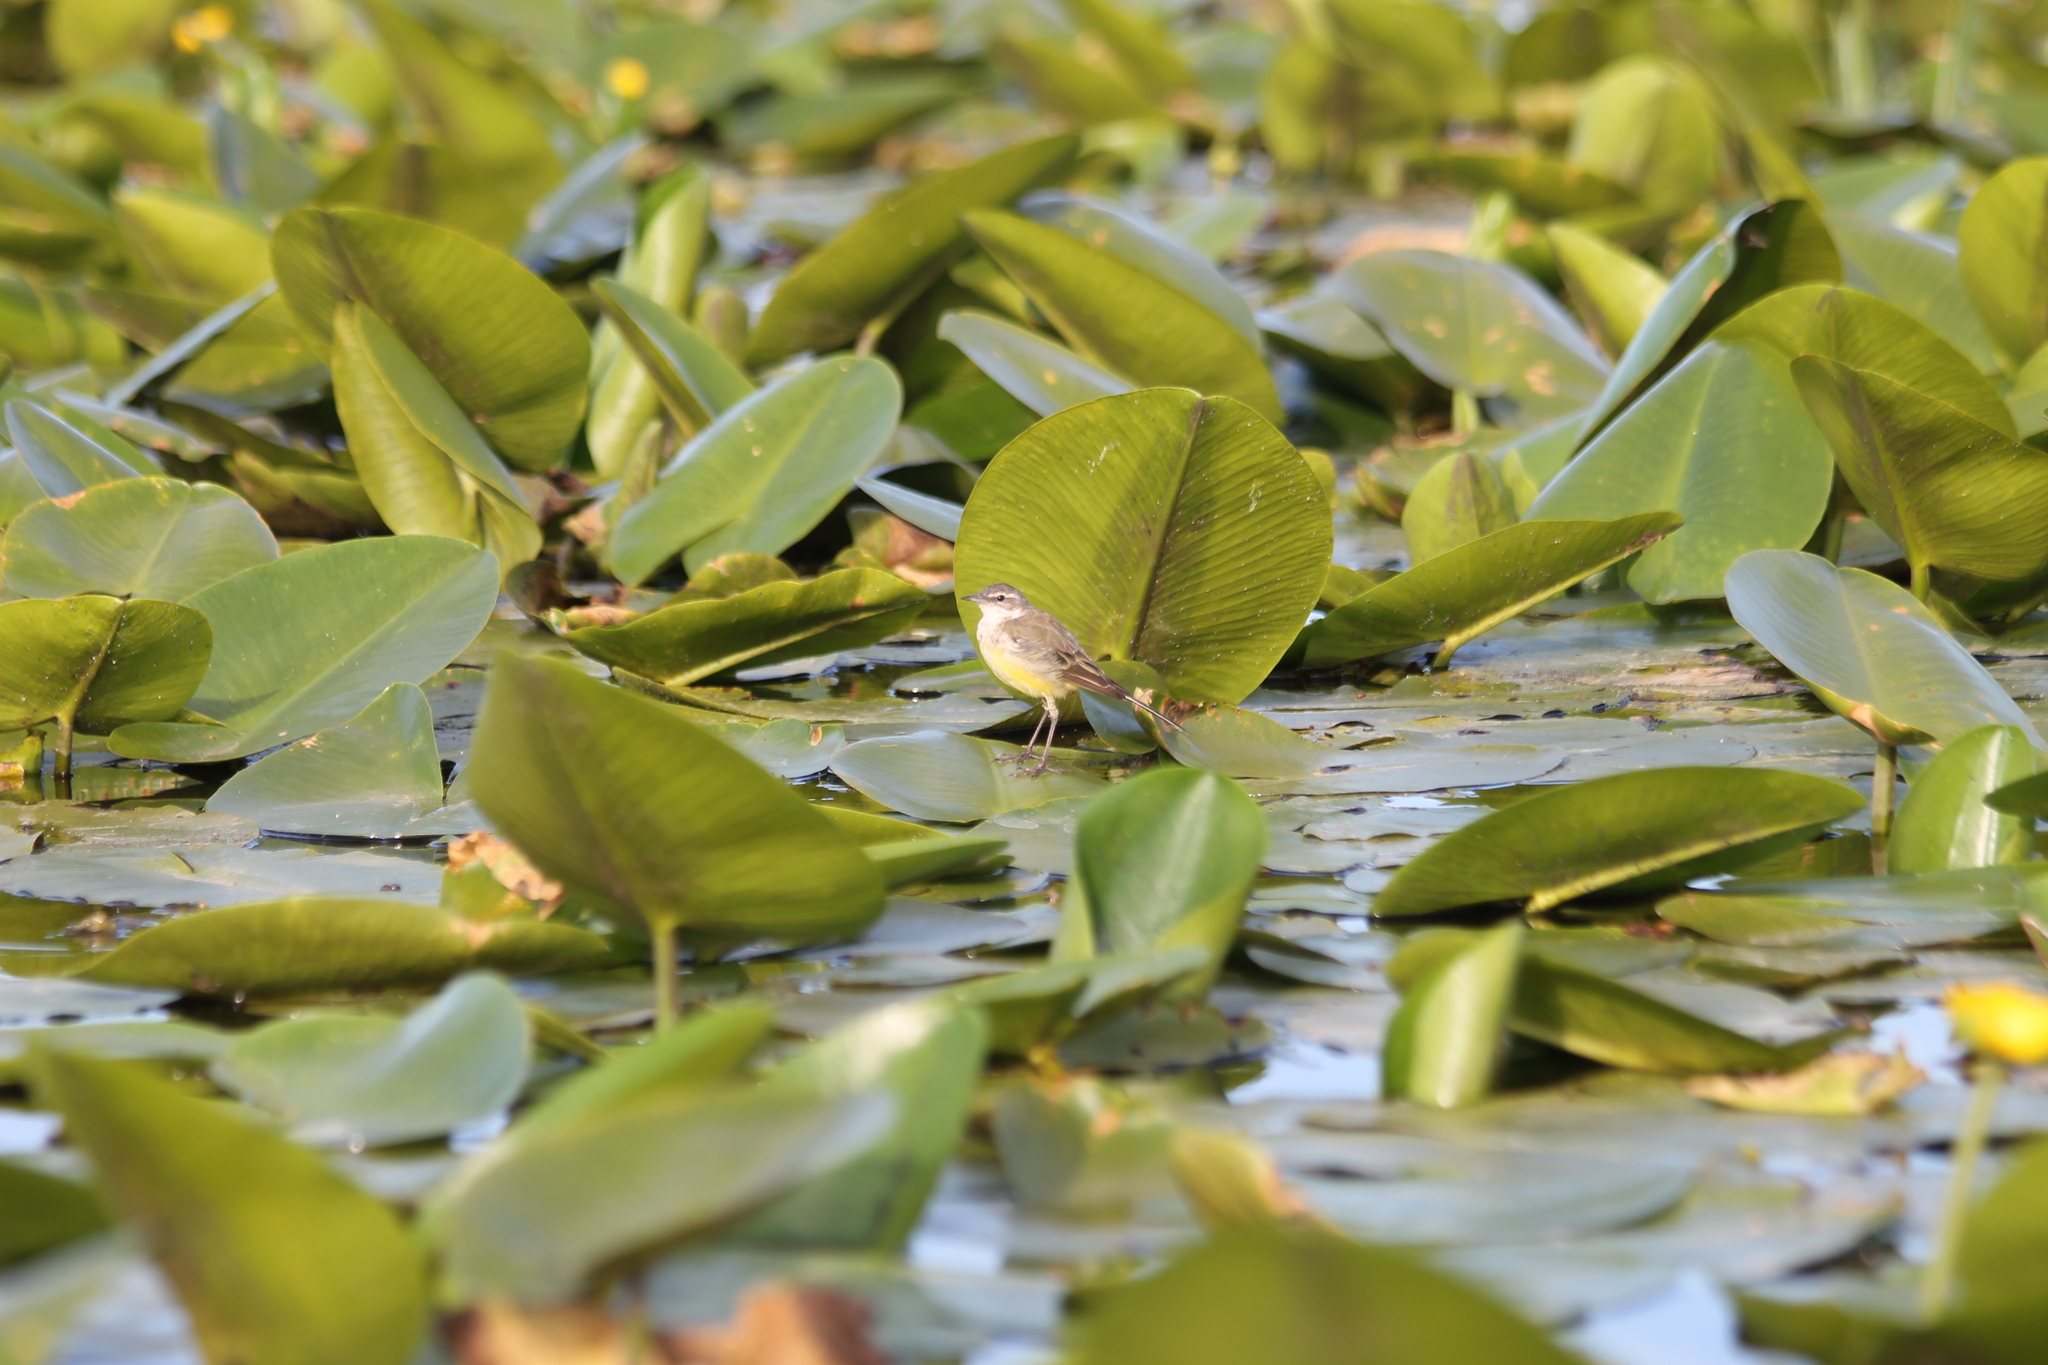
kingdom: Animalia
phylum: Chordata
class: Aves
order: Passeriformes
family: Motacillidae
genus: Motacilla
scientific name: Motacilla flava
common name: Western yellow wagtail
